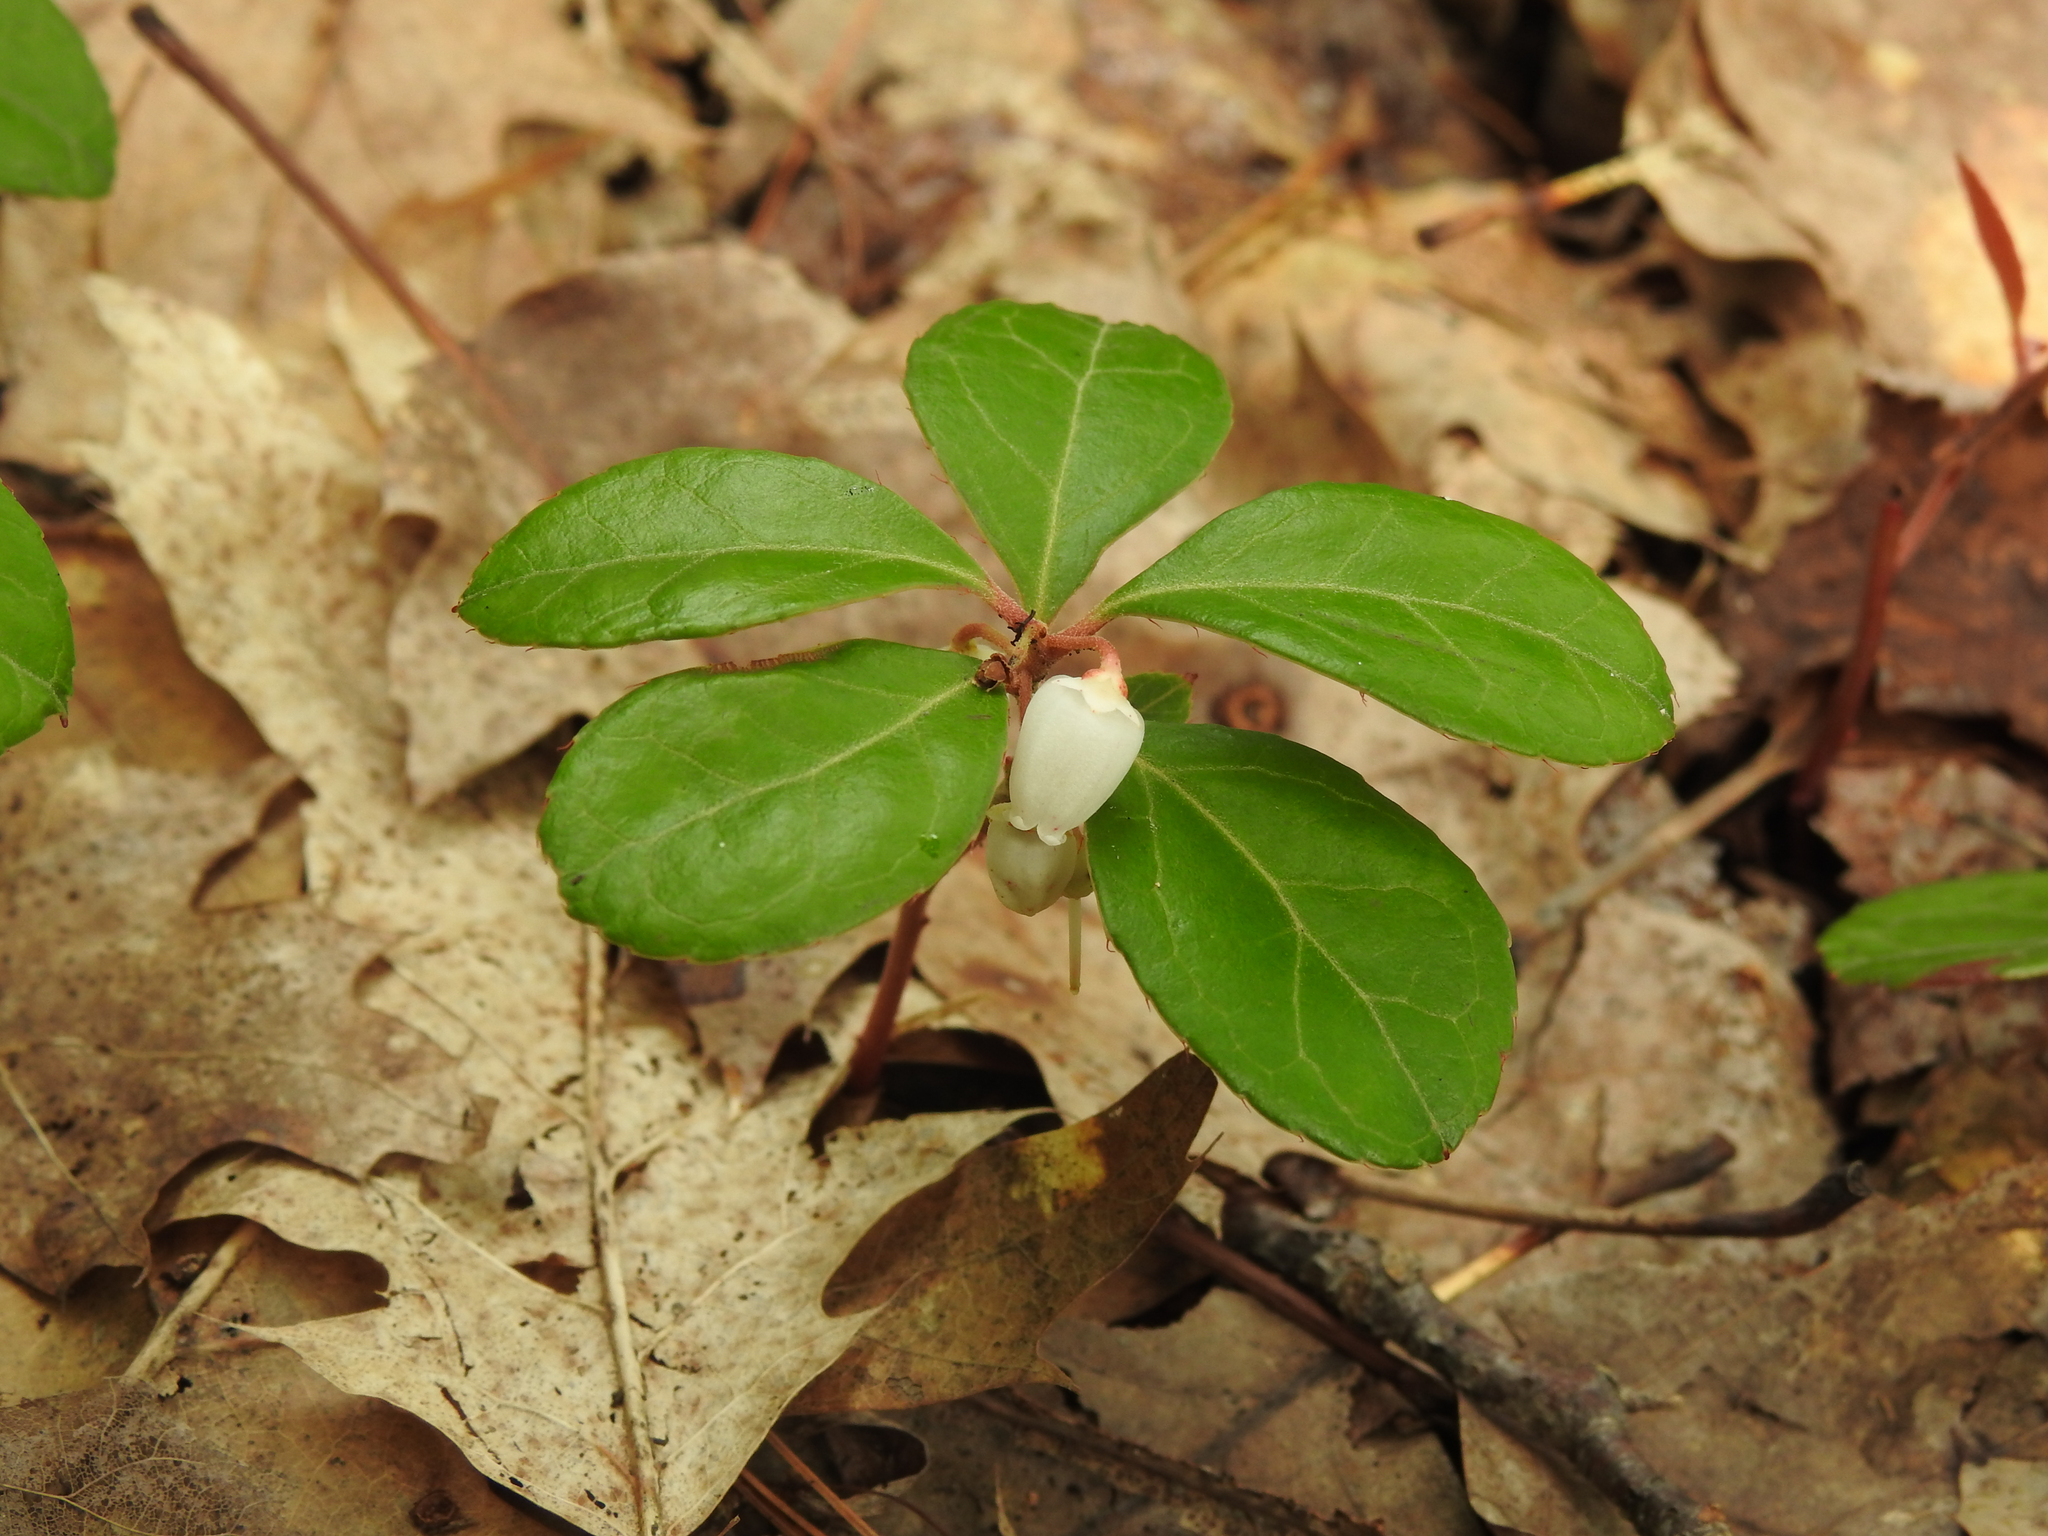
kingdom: Plantae
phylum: Tracheophyta
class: Magnoliopsida
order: Ericales
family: Ericaceae
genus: Gaultheria
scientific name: Gaultheria procumbens
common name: Checkerberry
